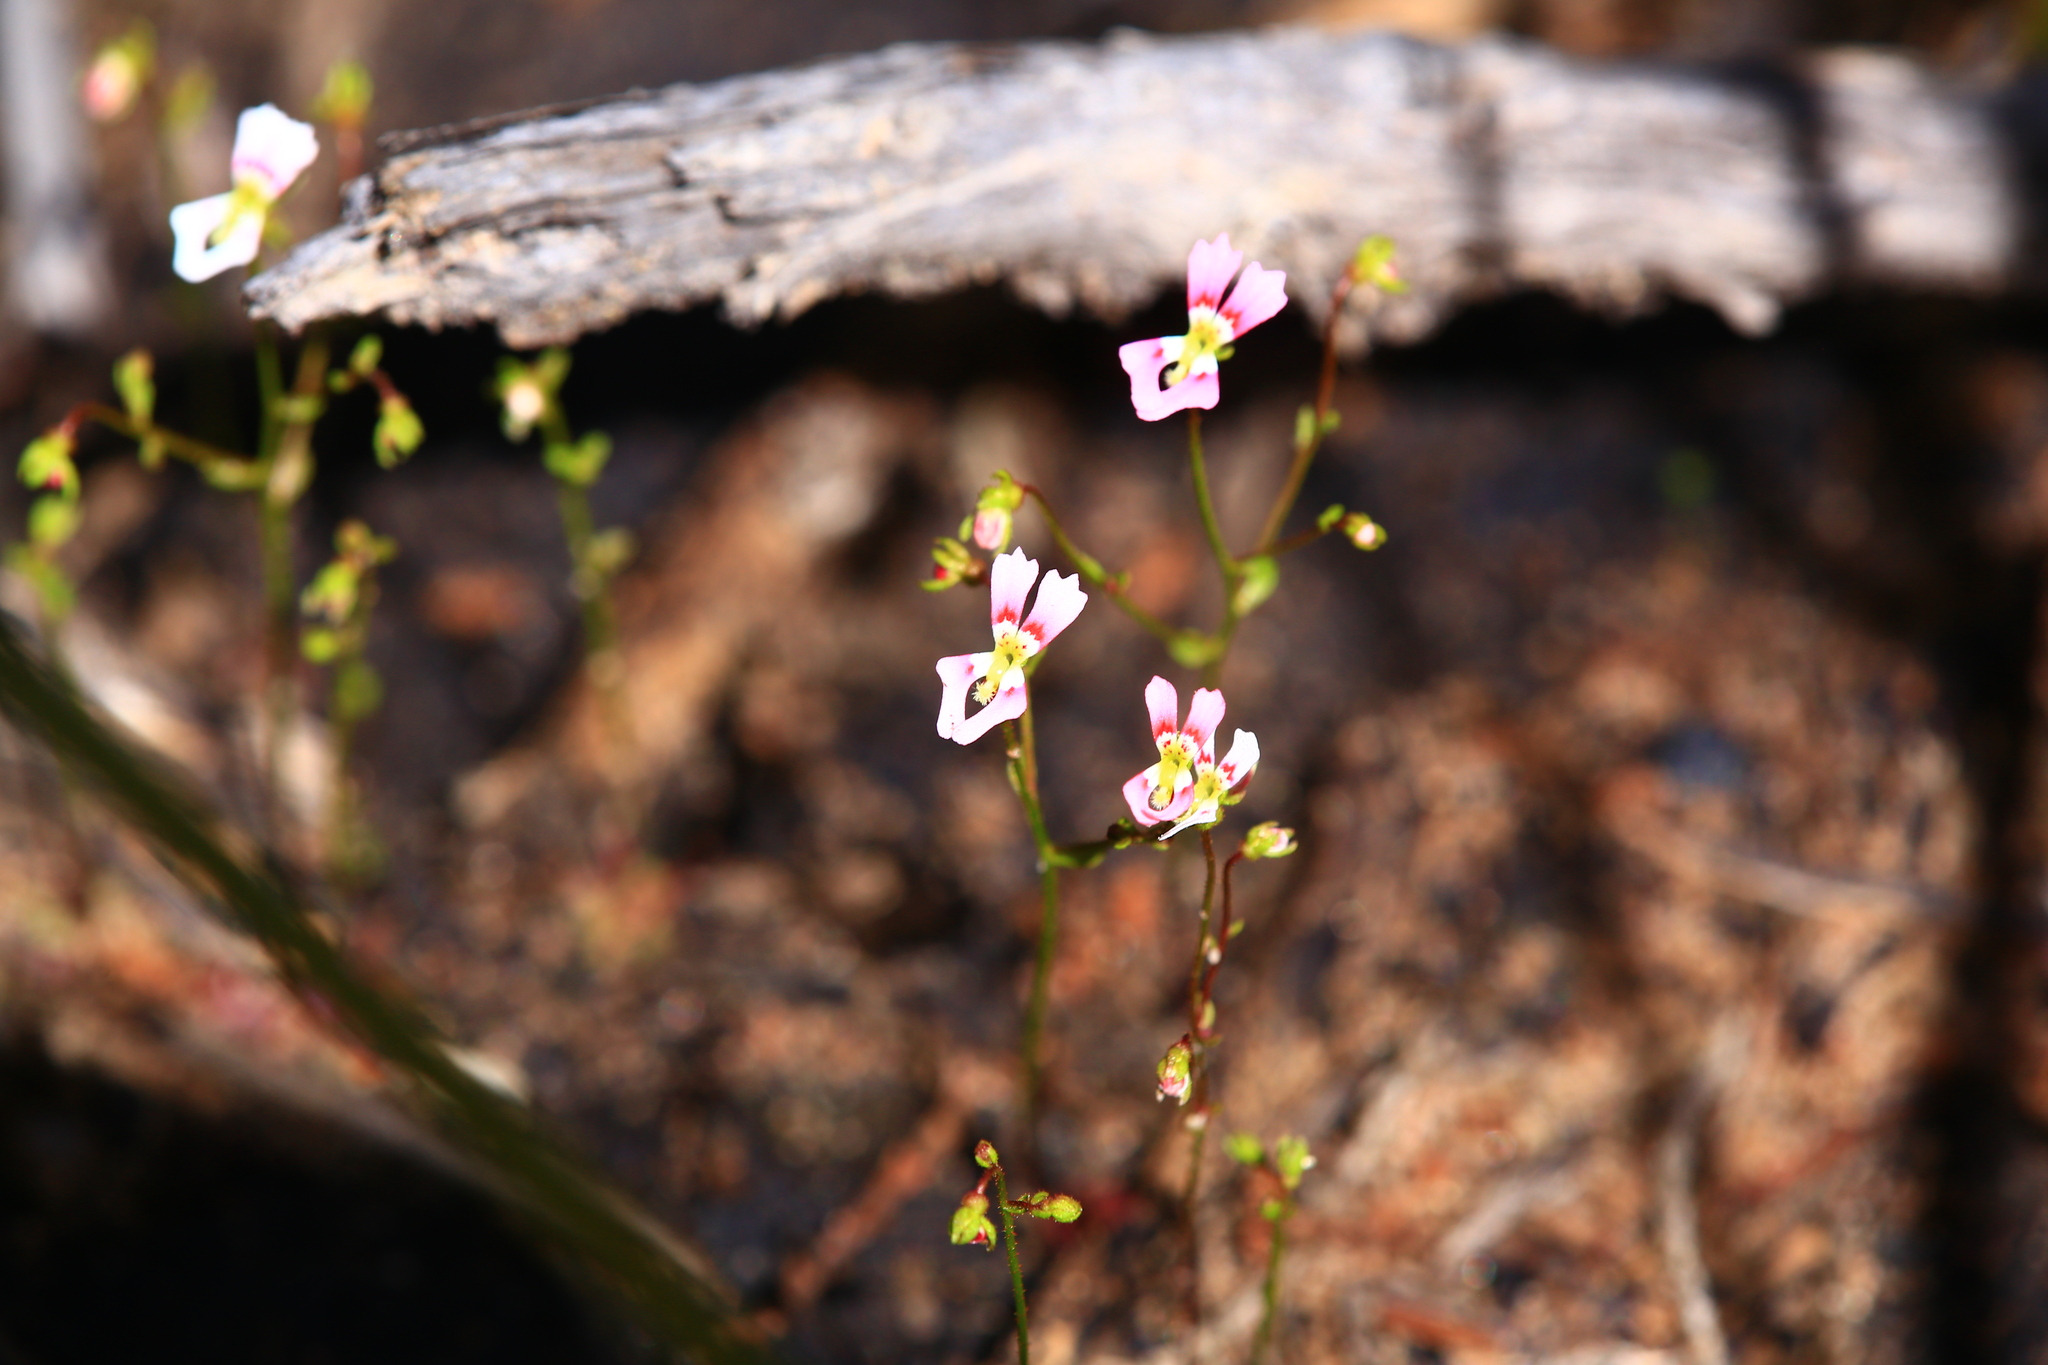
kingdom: Plantae
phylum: Tracheophyta
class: Magnoliopsida
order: Asterales
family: Stylidiaceae
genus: Stylidium
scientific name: Stylidium calcaratum
